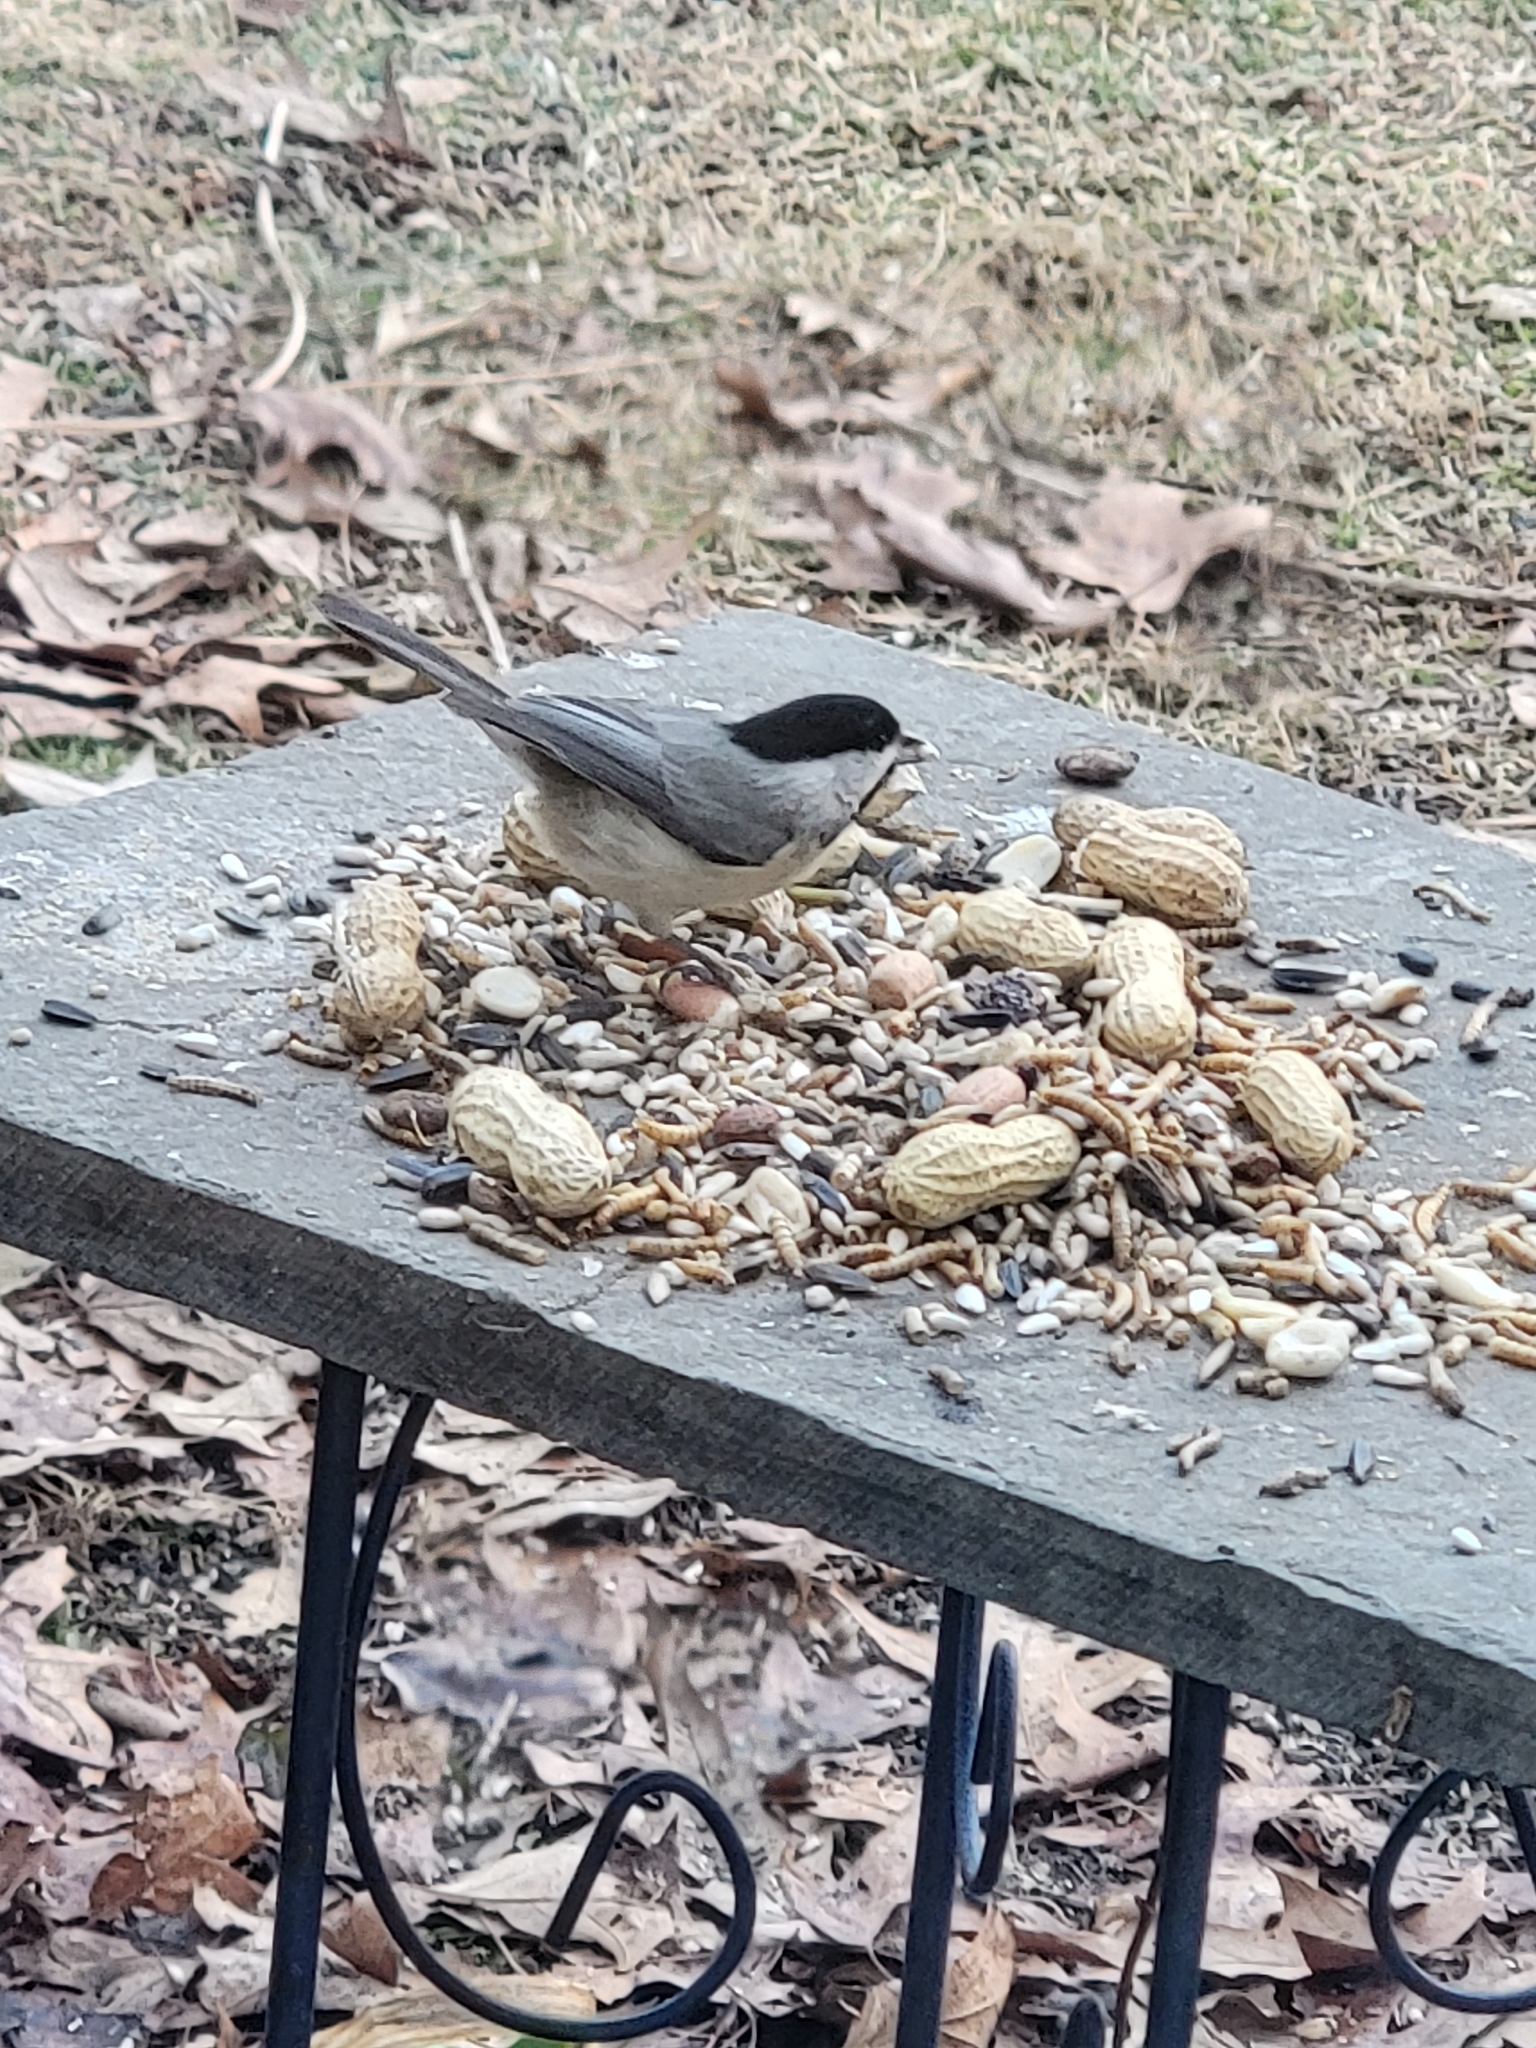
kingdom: Animalia
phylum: Chordata
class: Aves
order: Passeriformes
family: Paridae
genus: Poecile
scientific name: Poecile carolinensis
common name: Carolina chickadee
